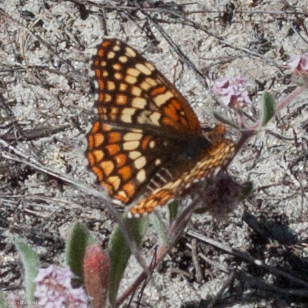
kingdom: Animalia
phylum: Arthropoda
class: Insecta
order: Lepidoptera
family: Nymphalidae
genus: Chlosyne
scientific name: Chlosyne palla
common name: Northern checkerspot
